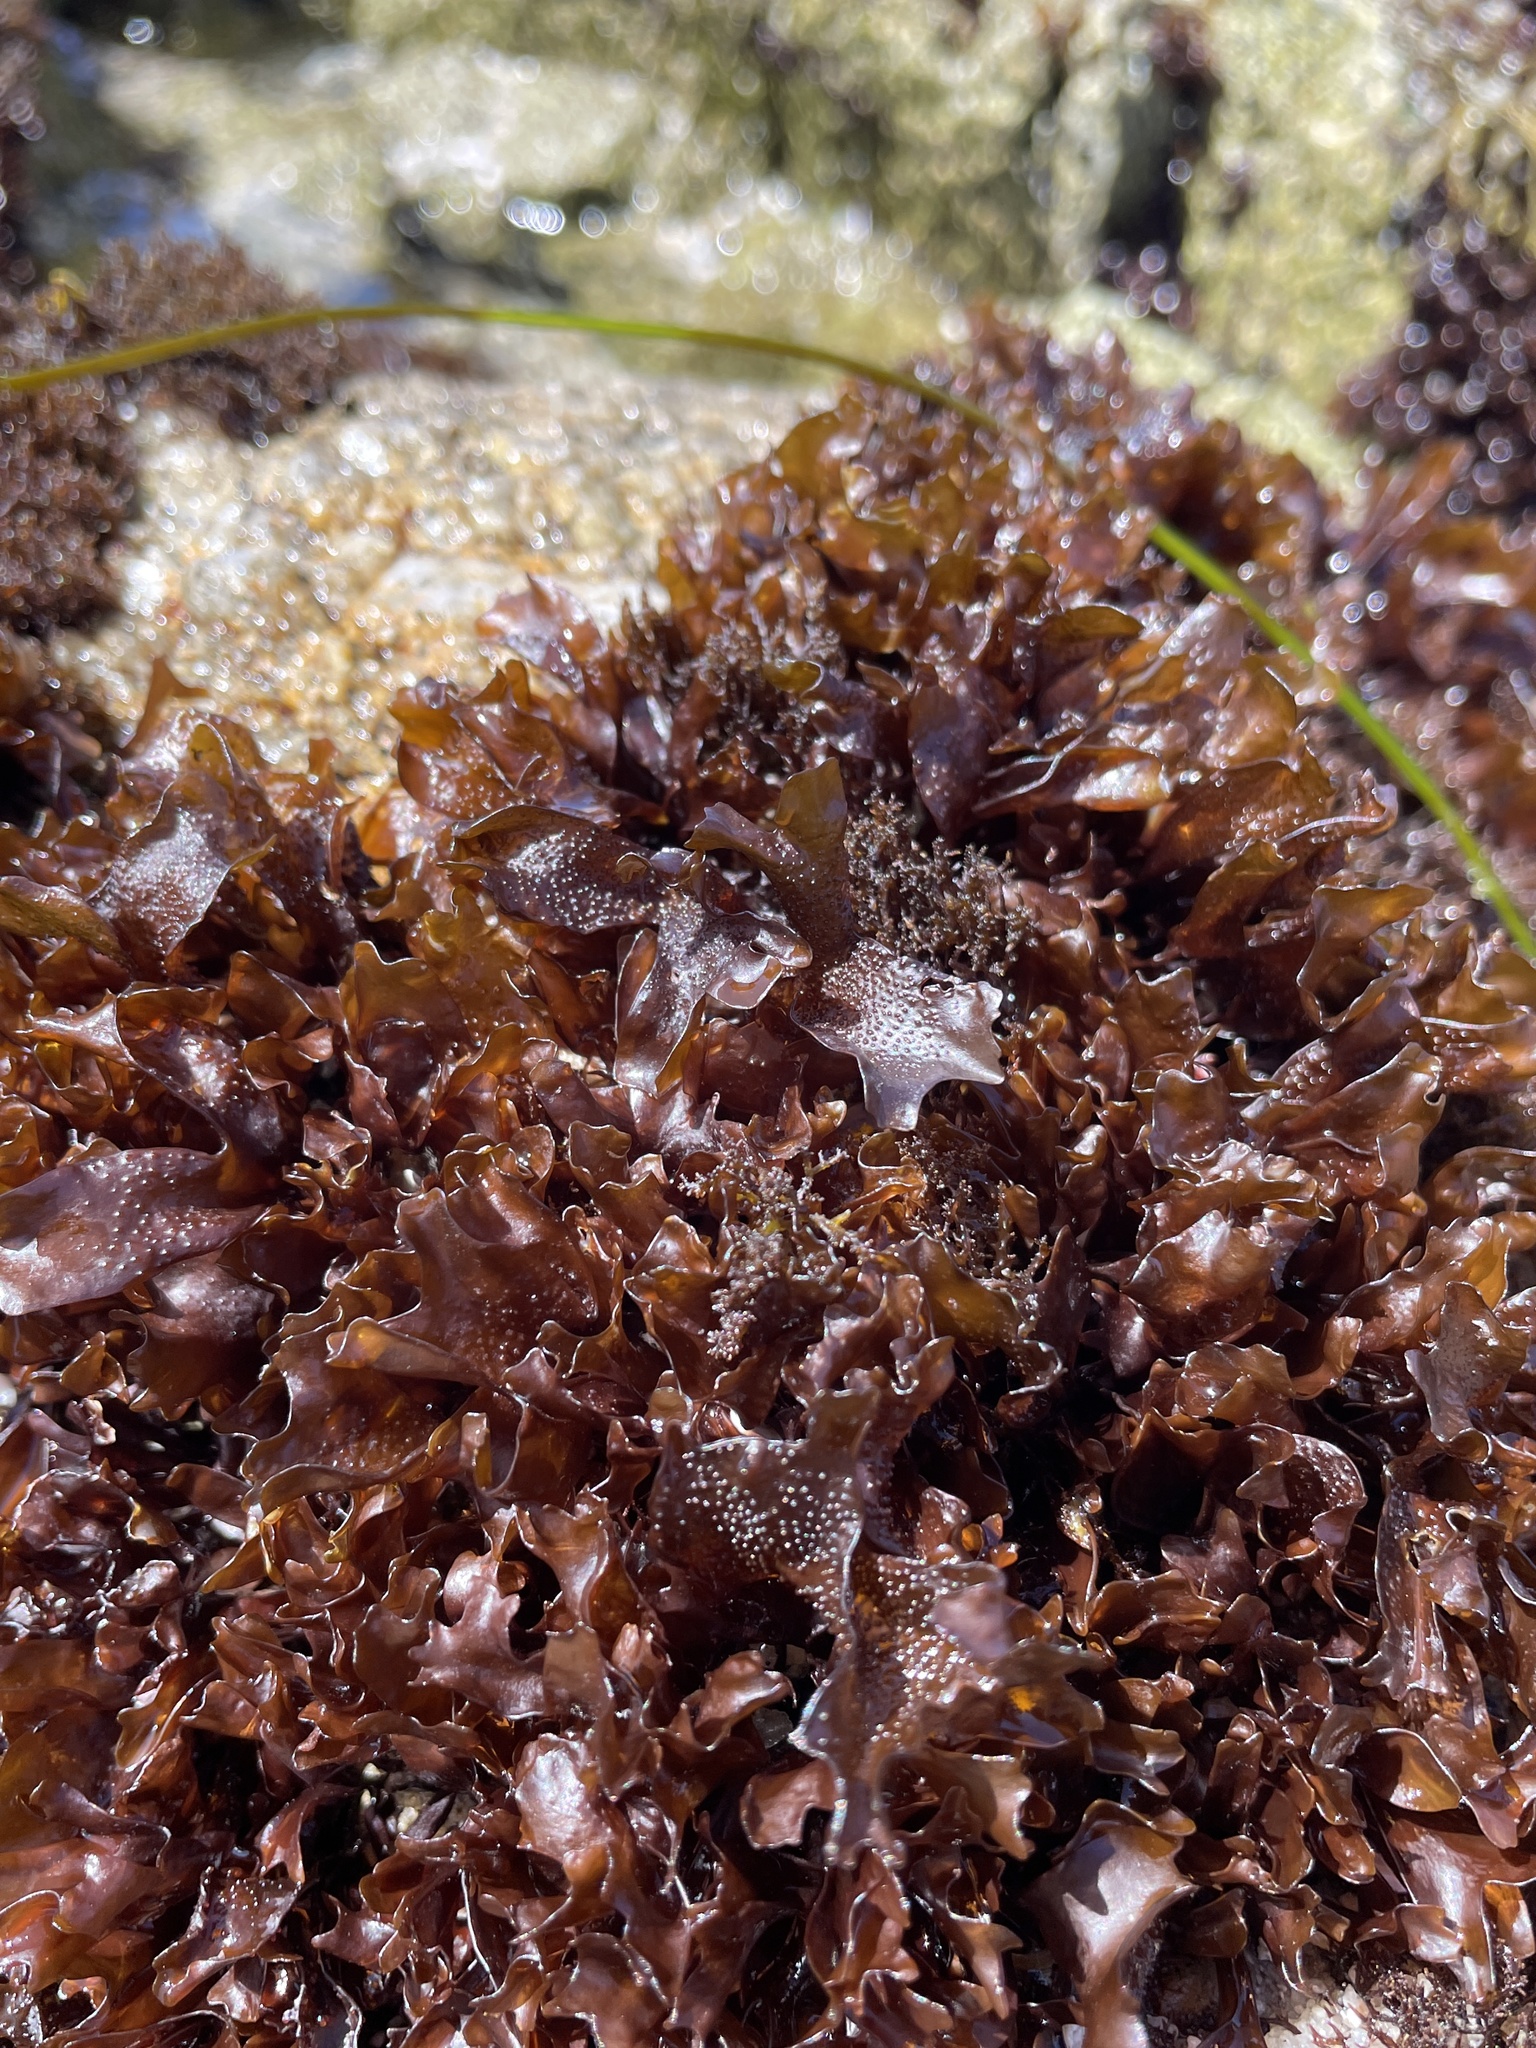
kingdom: Plantae
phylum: Rhodophyta
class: Florideophyceae
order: Gigartinales
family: Phyllophoraceae
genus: Mastocarpus
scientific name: Mastocarpus papillatus
